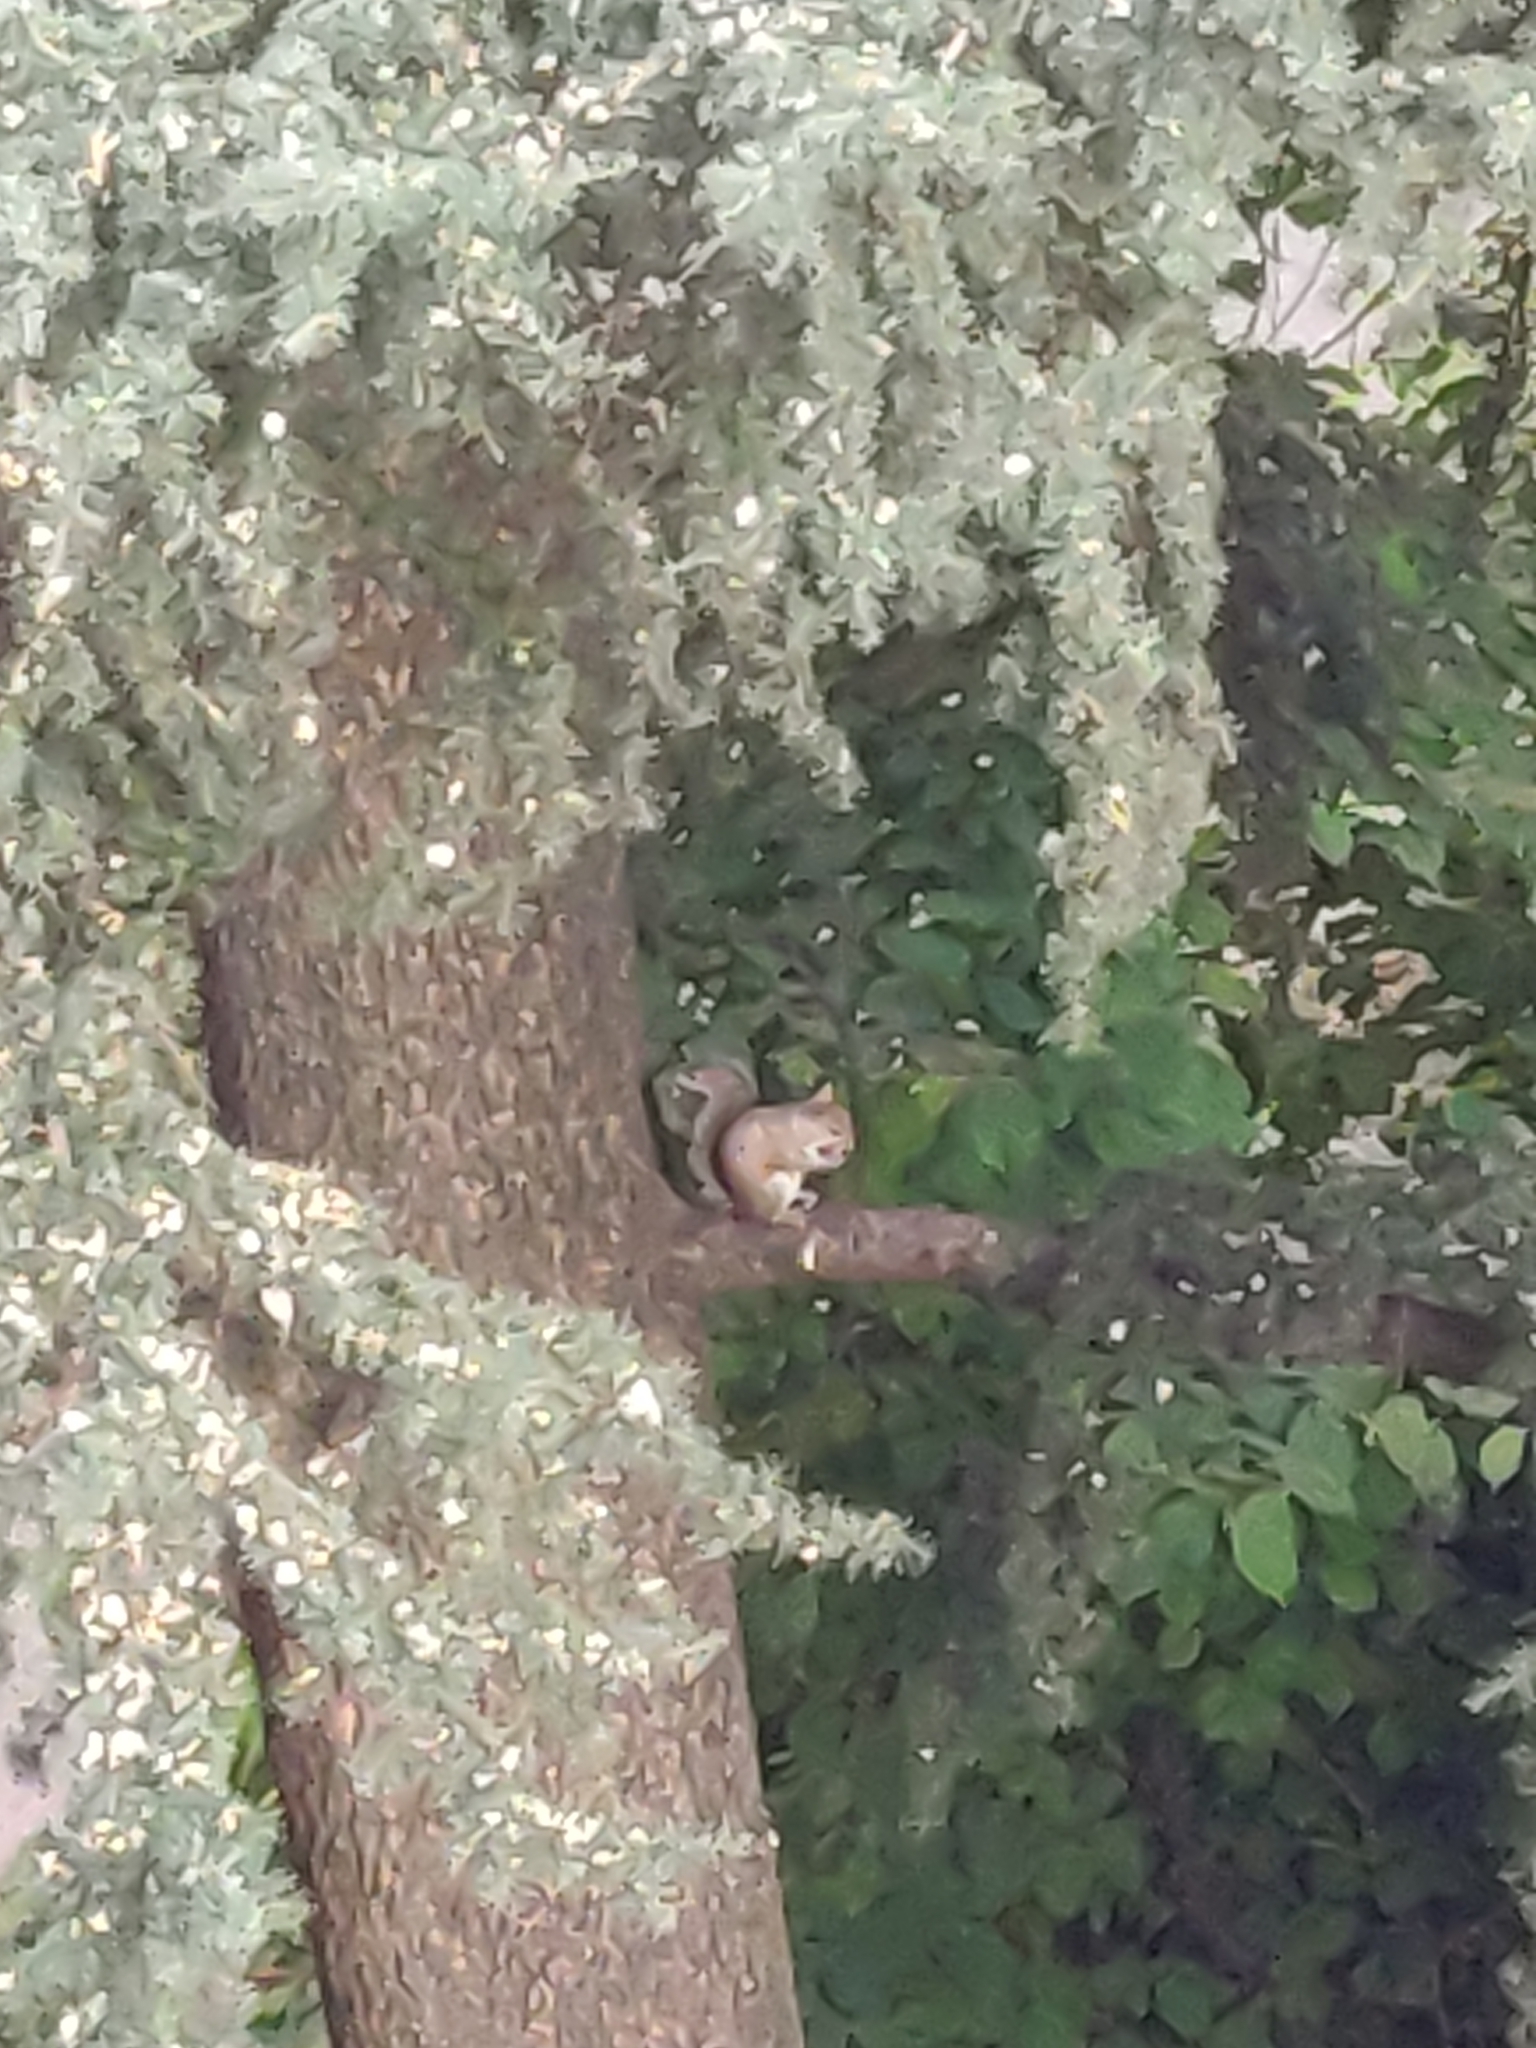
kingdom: Animalia
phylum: Chordata
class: Mammalia
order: Rodentia
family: Sciuridae
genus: Sciurus
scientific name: Sciurus carolinensis
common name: Eastern gray squirrel
